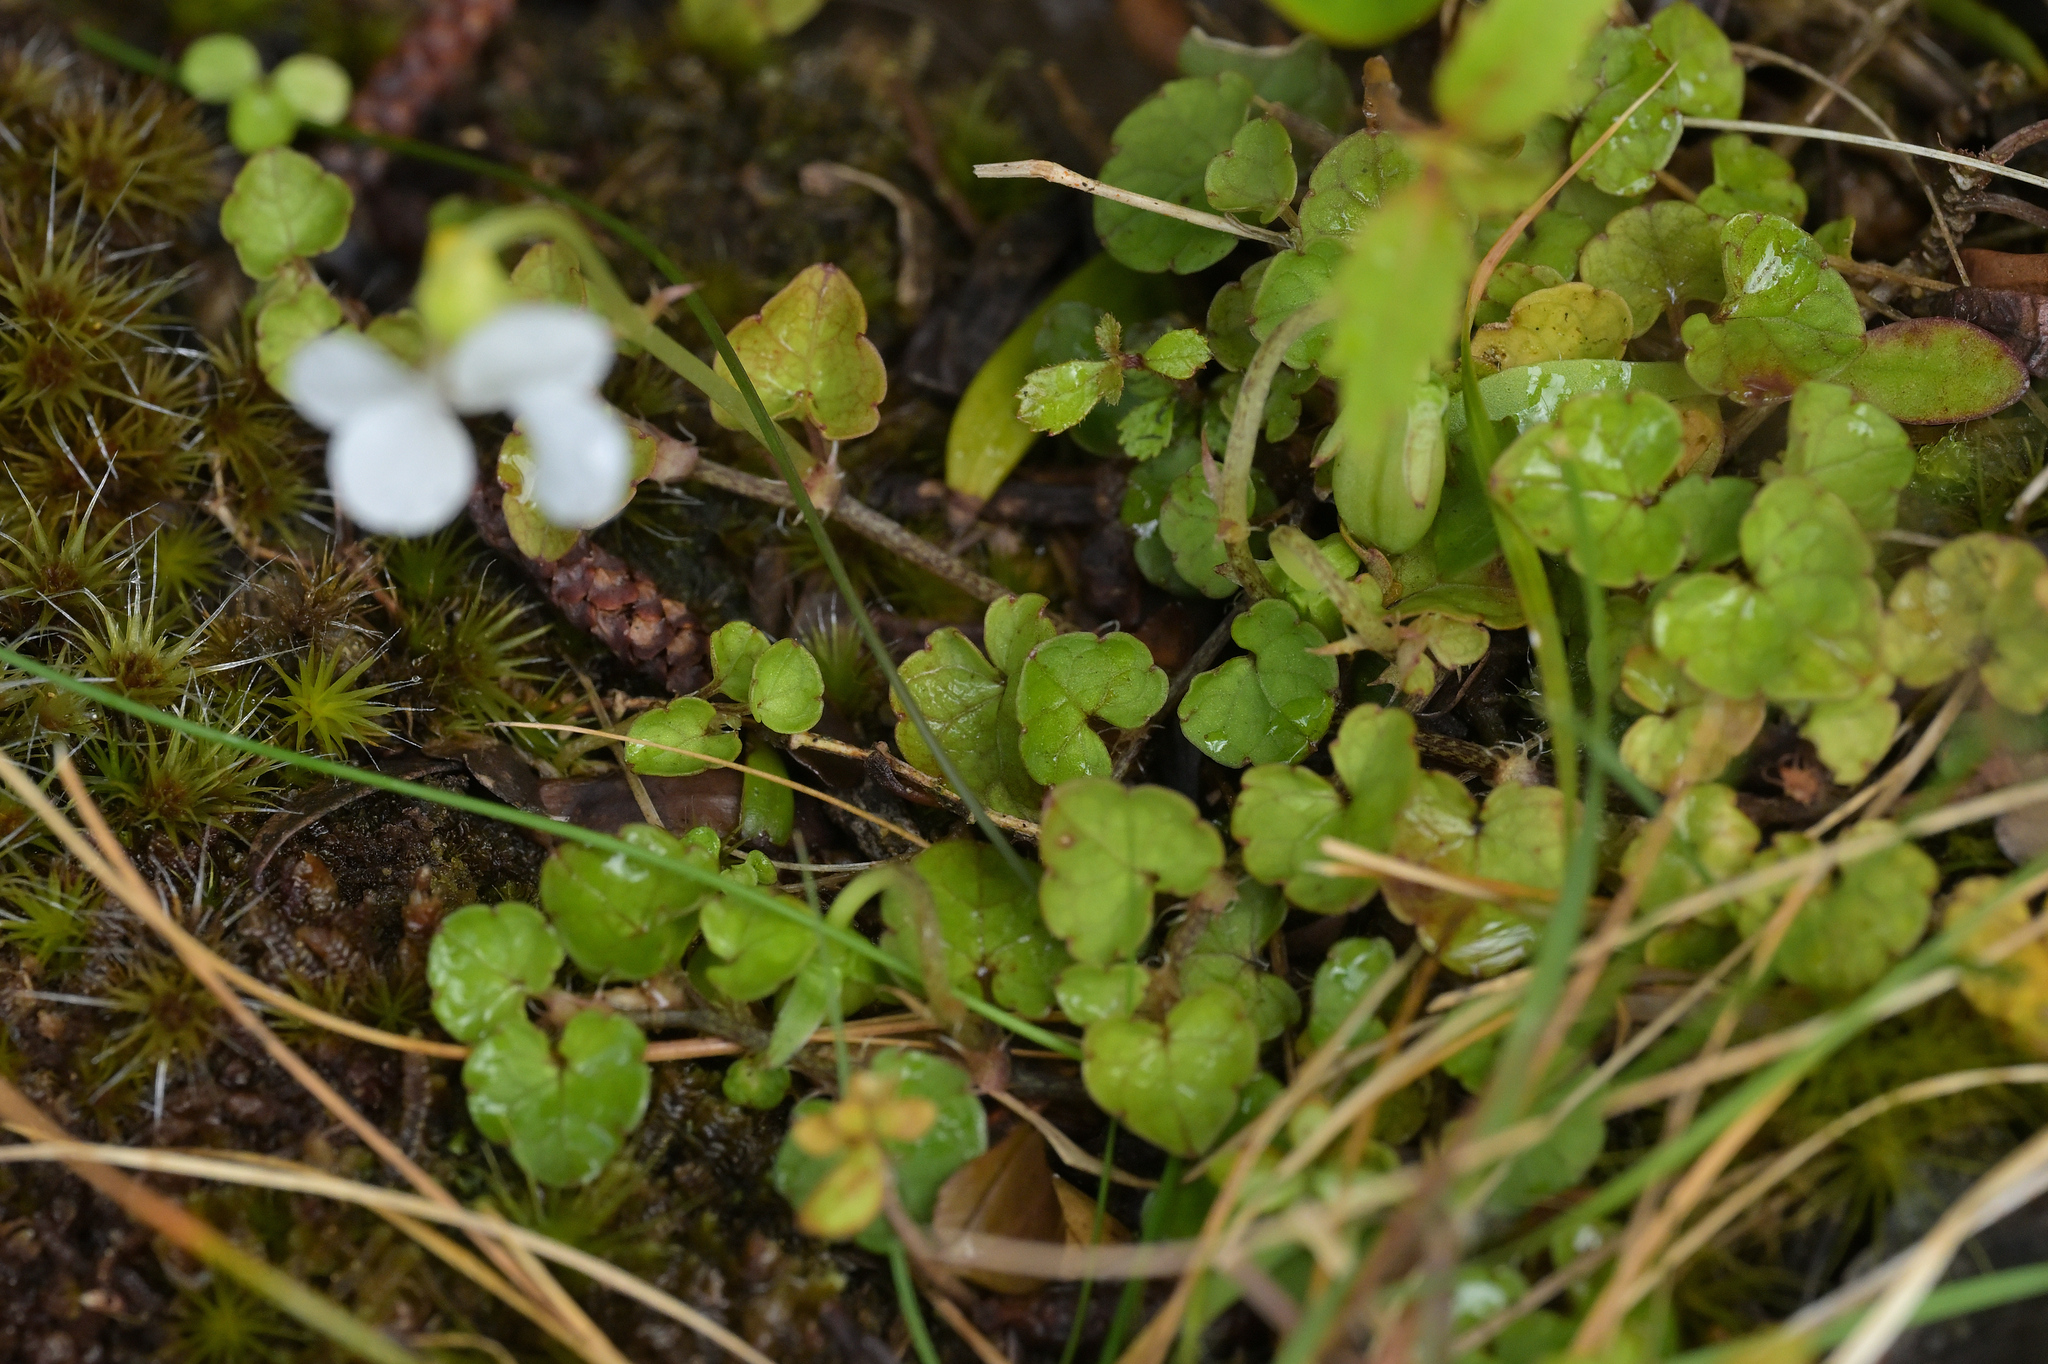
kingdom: Plantae
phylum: Tracheophyta
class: Magnoliopsida
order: Malpighiales
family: Violaceae
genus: Viola
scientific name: Viola filicaulis
